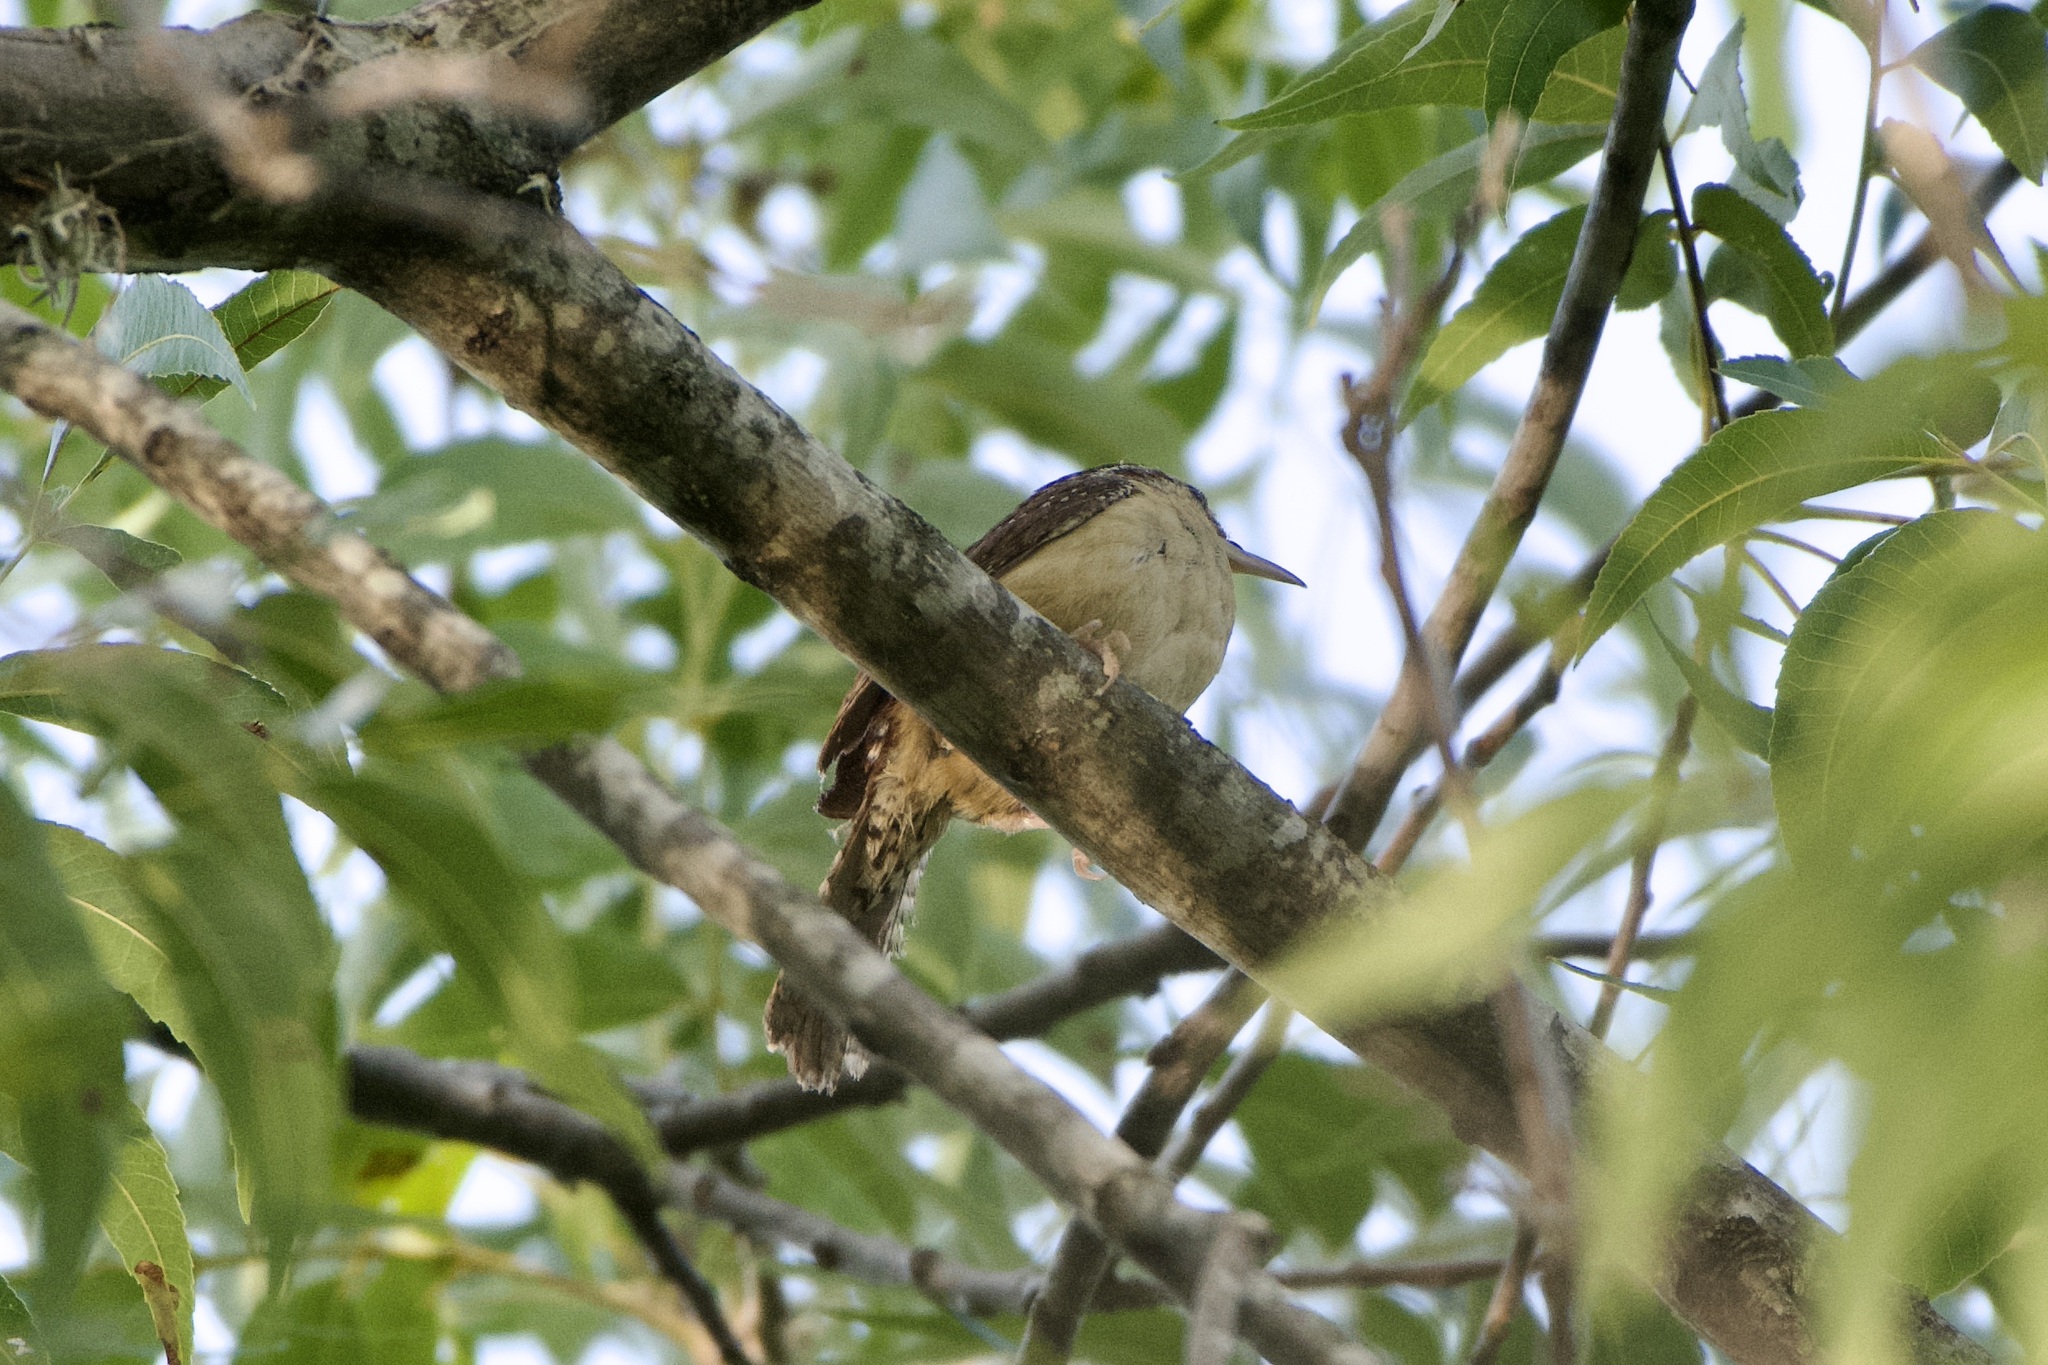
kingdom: Animalia
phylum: Chordata
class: Aves
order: Passeriformes
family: Troglodytidae
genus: Thryothorus
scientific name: Thryothorus ludovicianus
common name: Carolina wren
